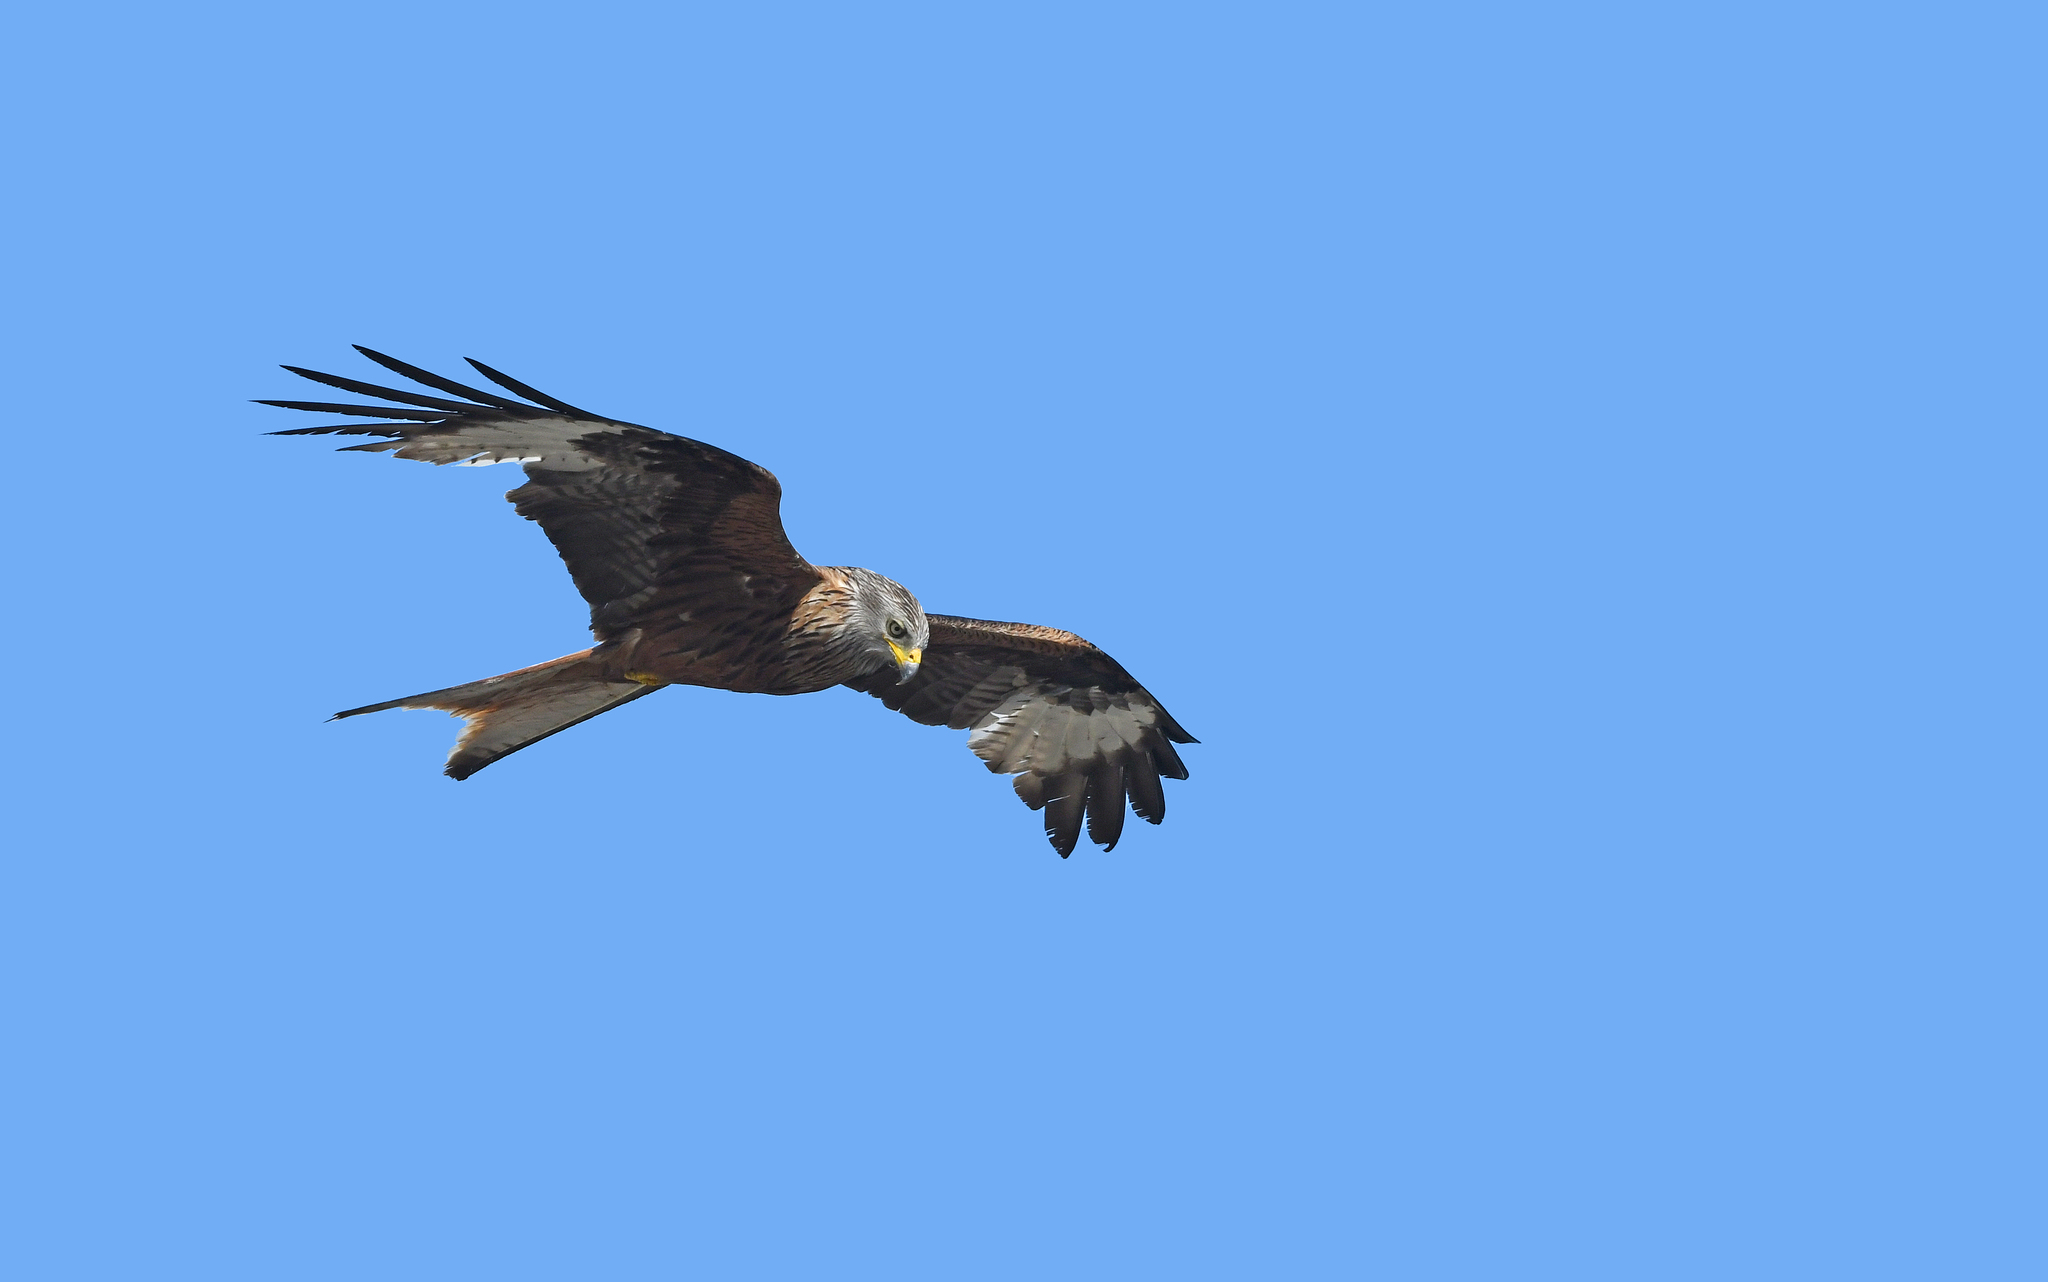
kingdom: Animalia
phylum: Chordata
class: Aves
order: Accipitriformes
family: Accipitridae
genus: Milvus
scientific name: Milvus milvus
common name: Red kite
